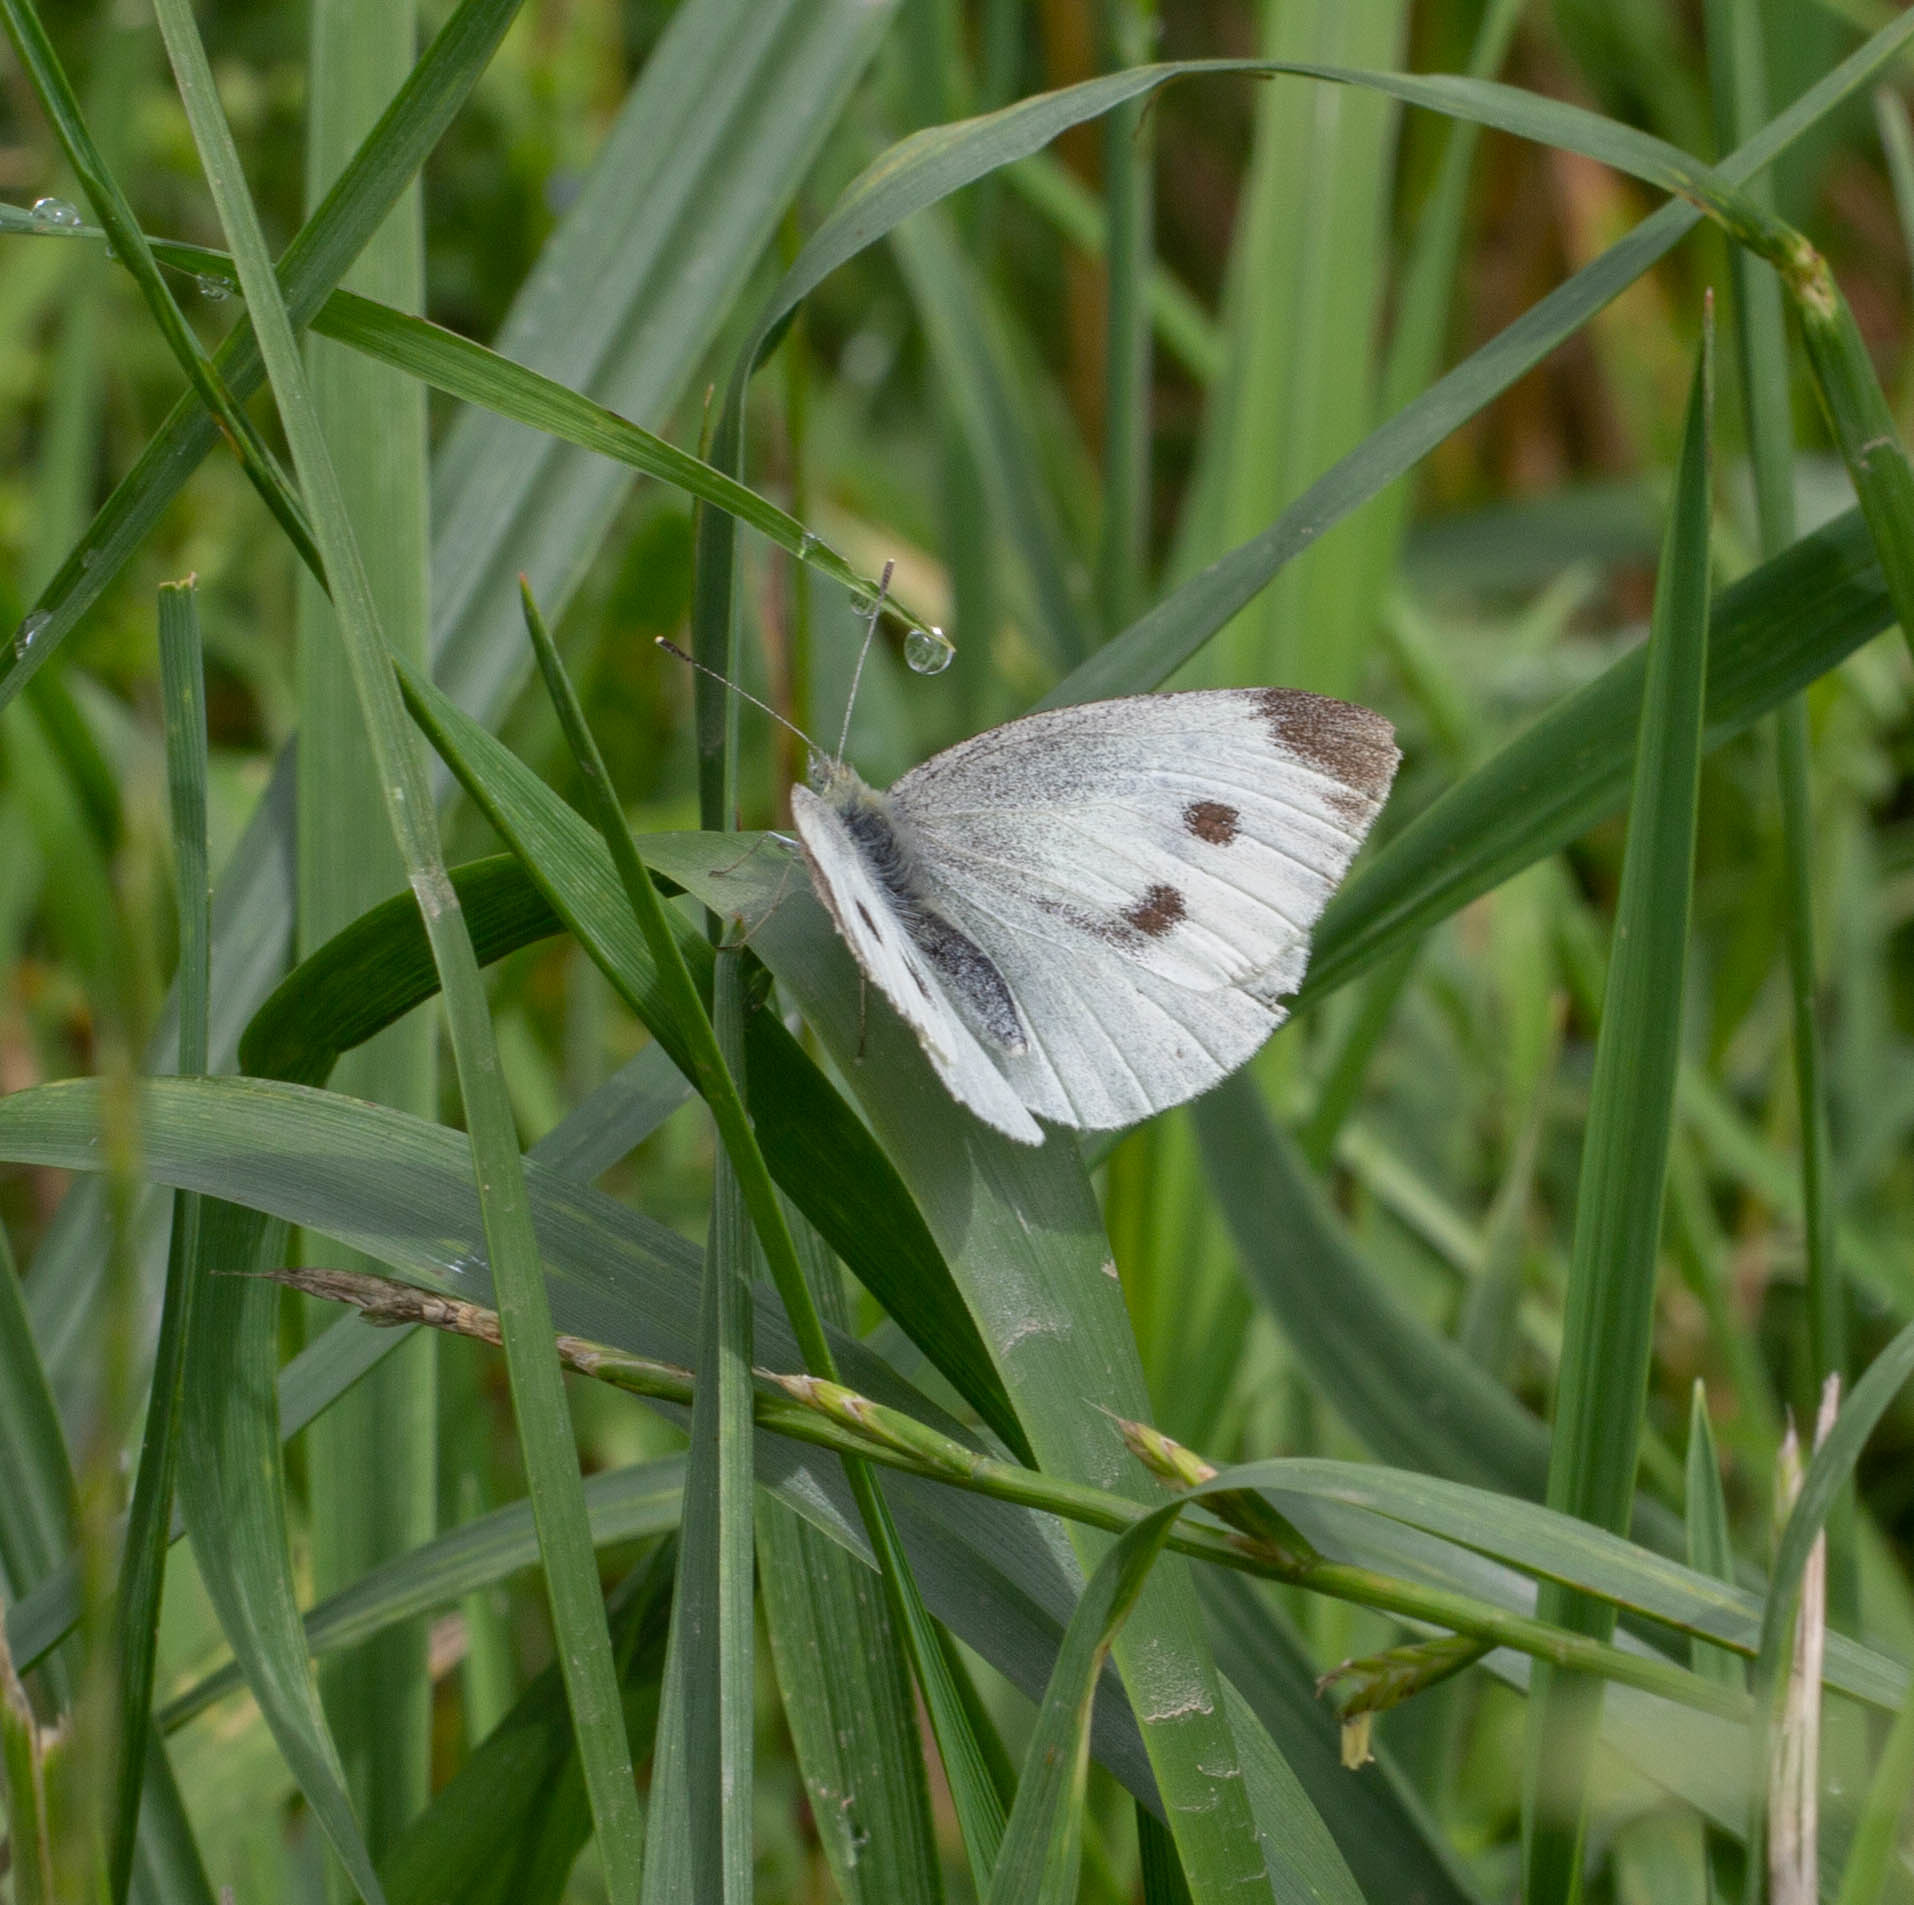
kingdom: Animalia
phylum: Arthropoda
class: Insecta
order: Lepidoptera
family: Pieridae
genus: Pieris
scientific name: Pieris rapae
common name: Small white
